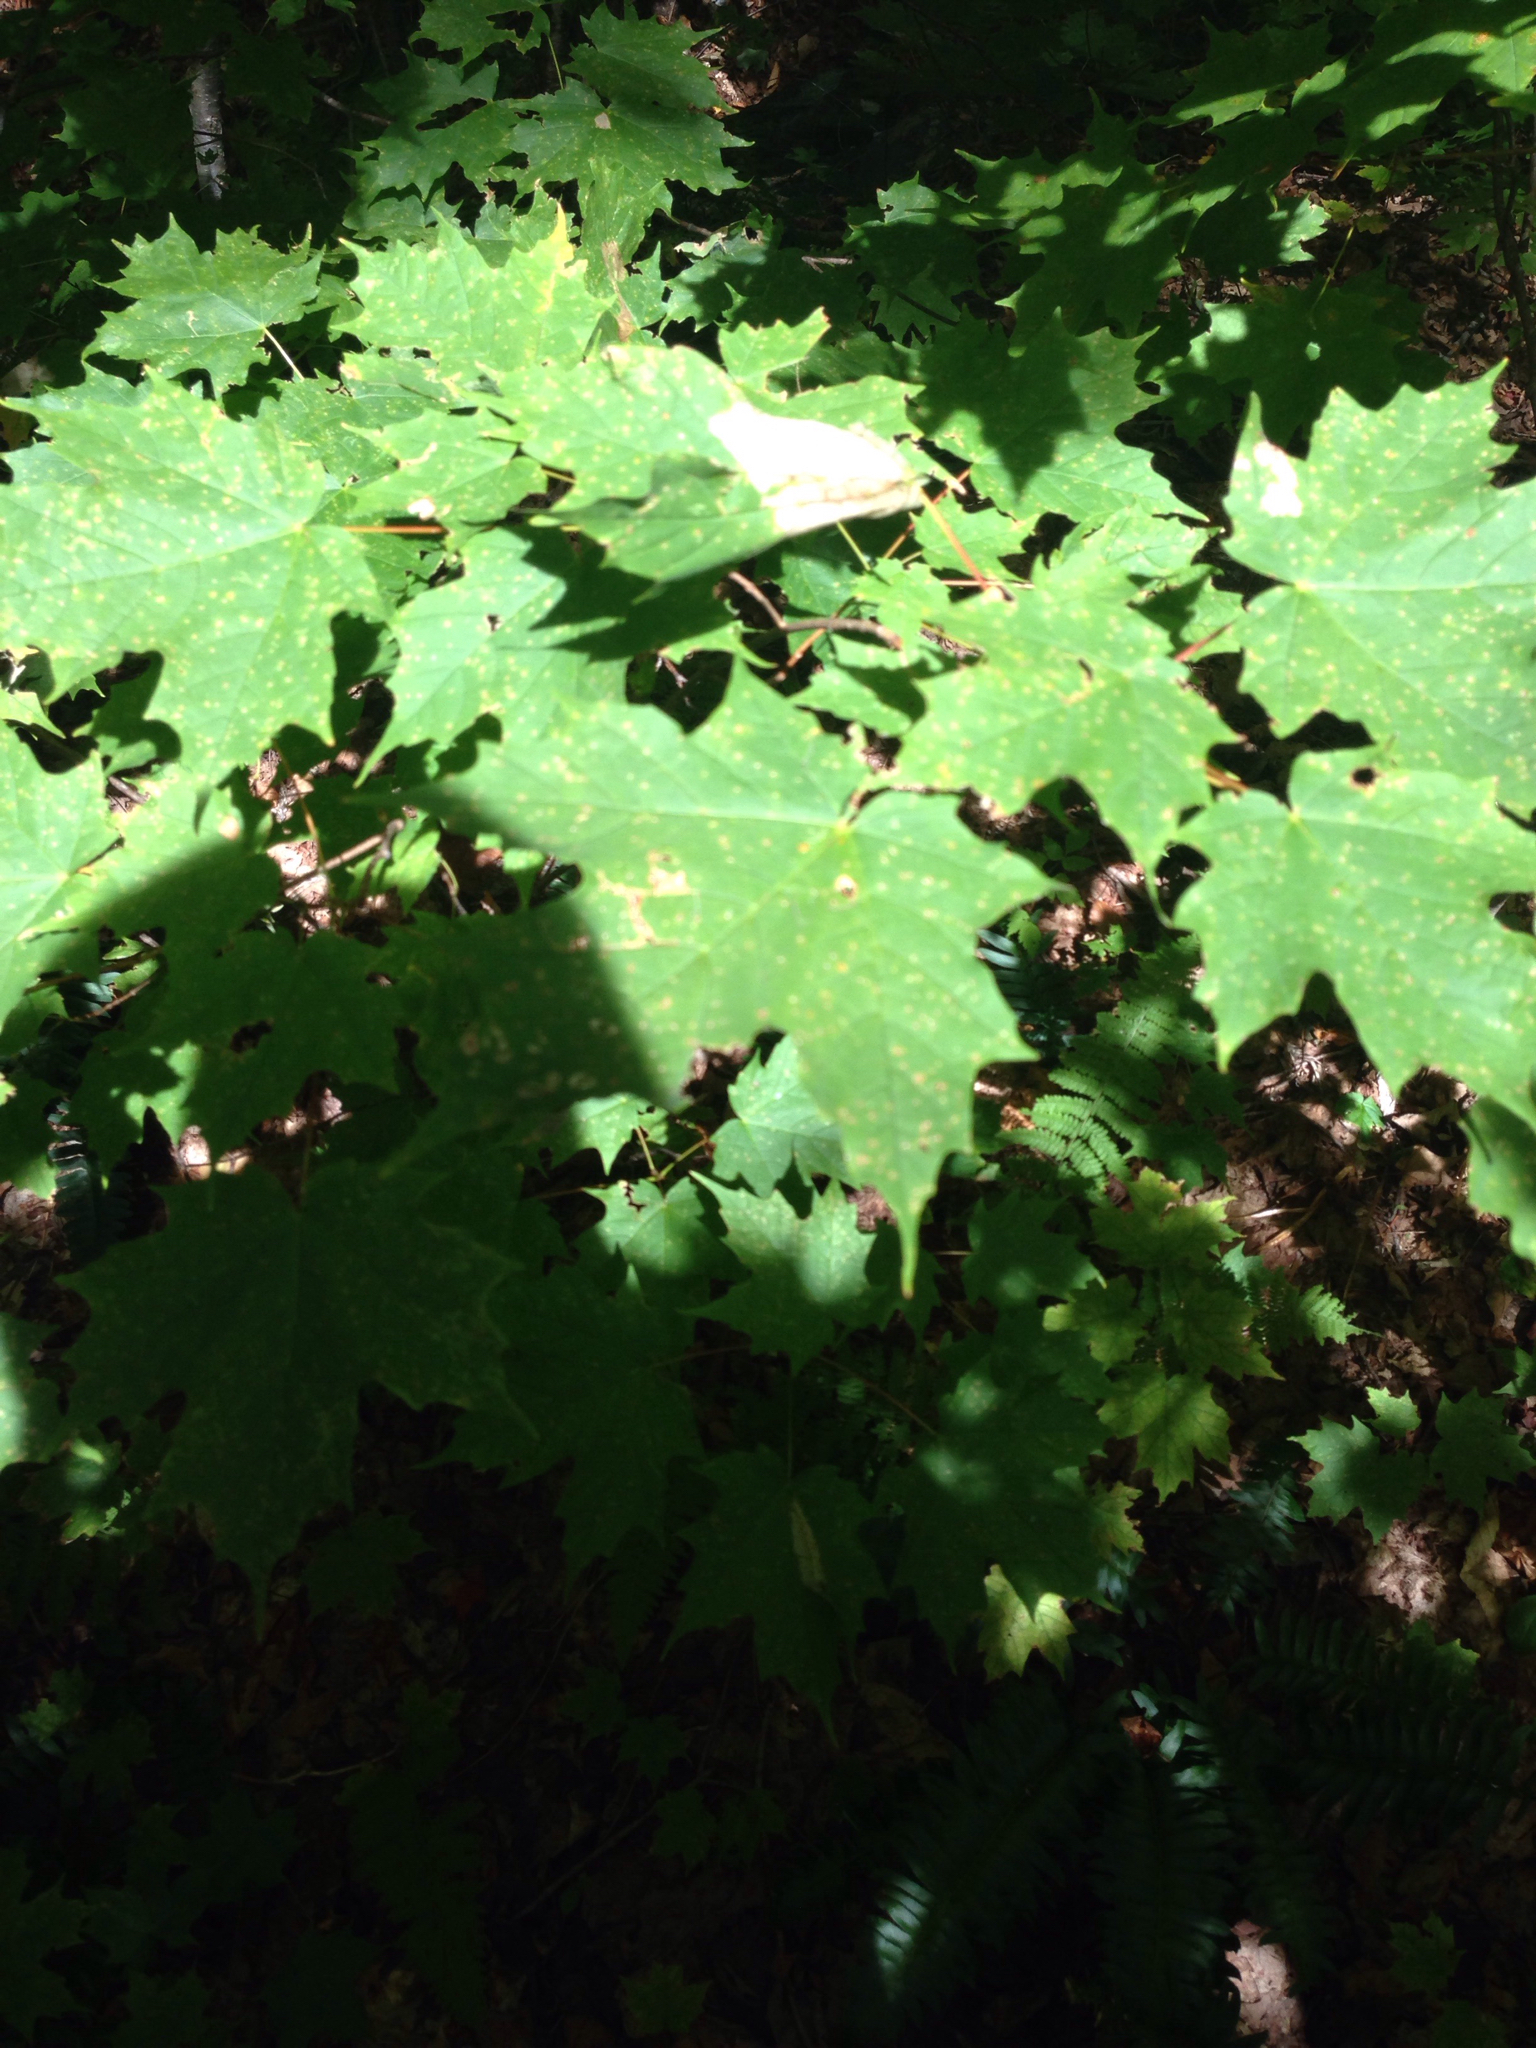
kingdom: Plantae
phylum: Tracheophyta
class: Magnoliopsida
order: Sapindales
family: Sapindaceae
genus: Acer
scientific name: Acer saccharum
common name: Sugar maple
